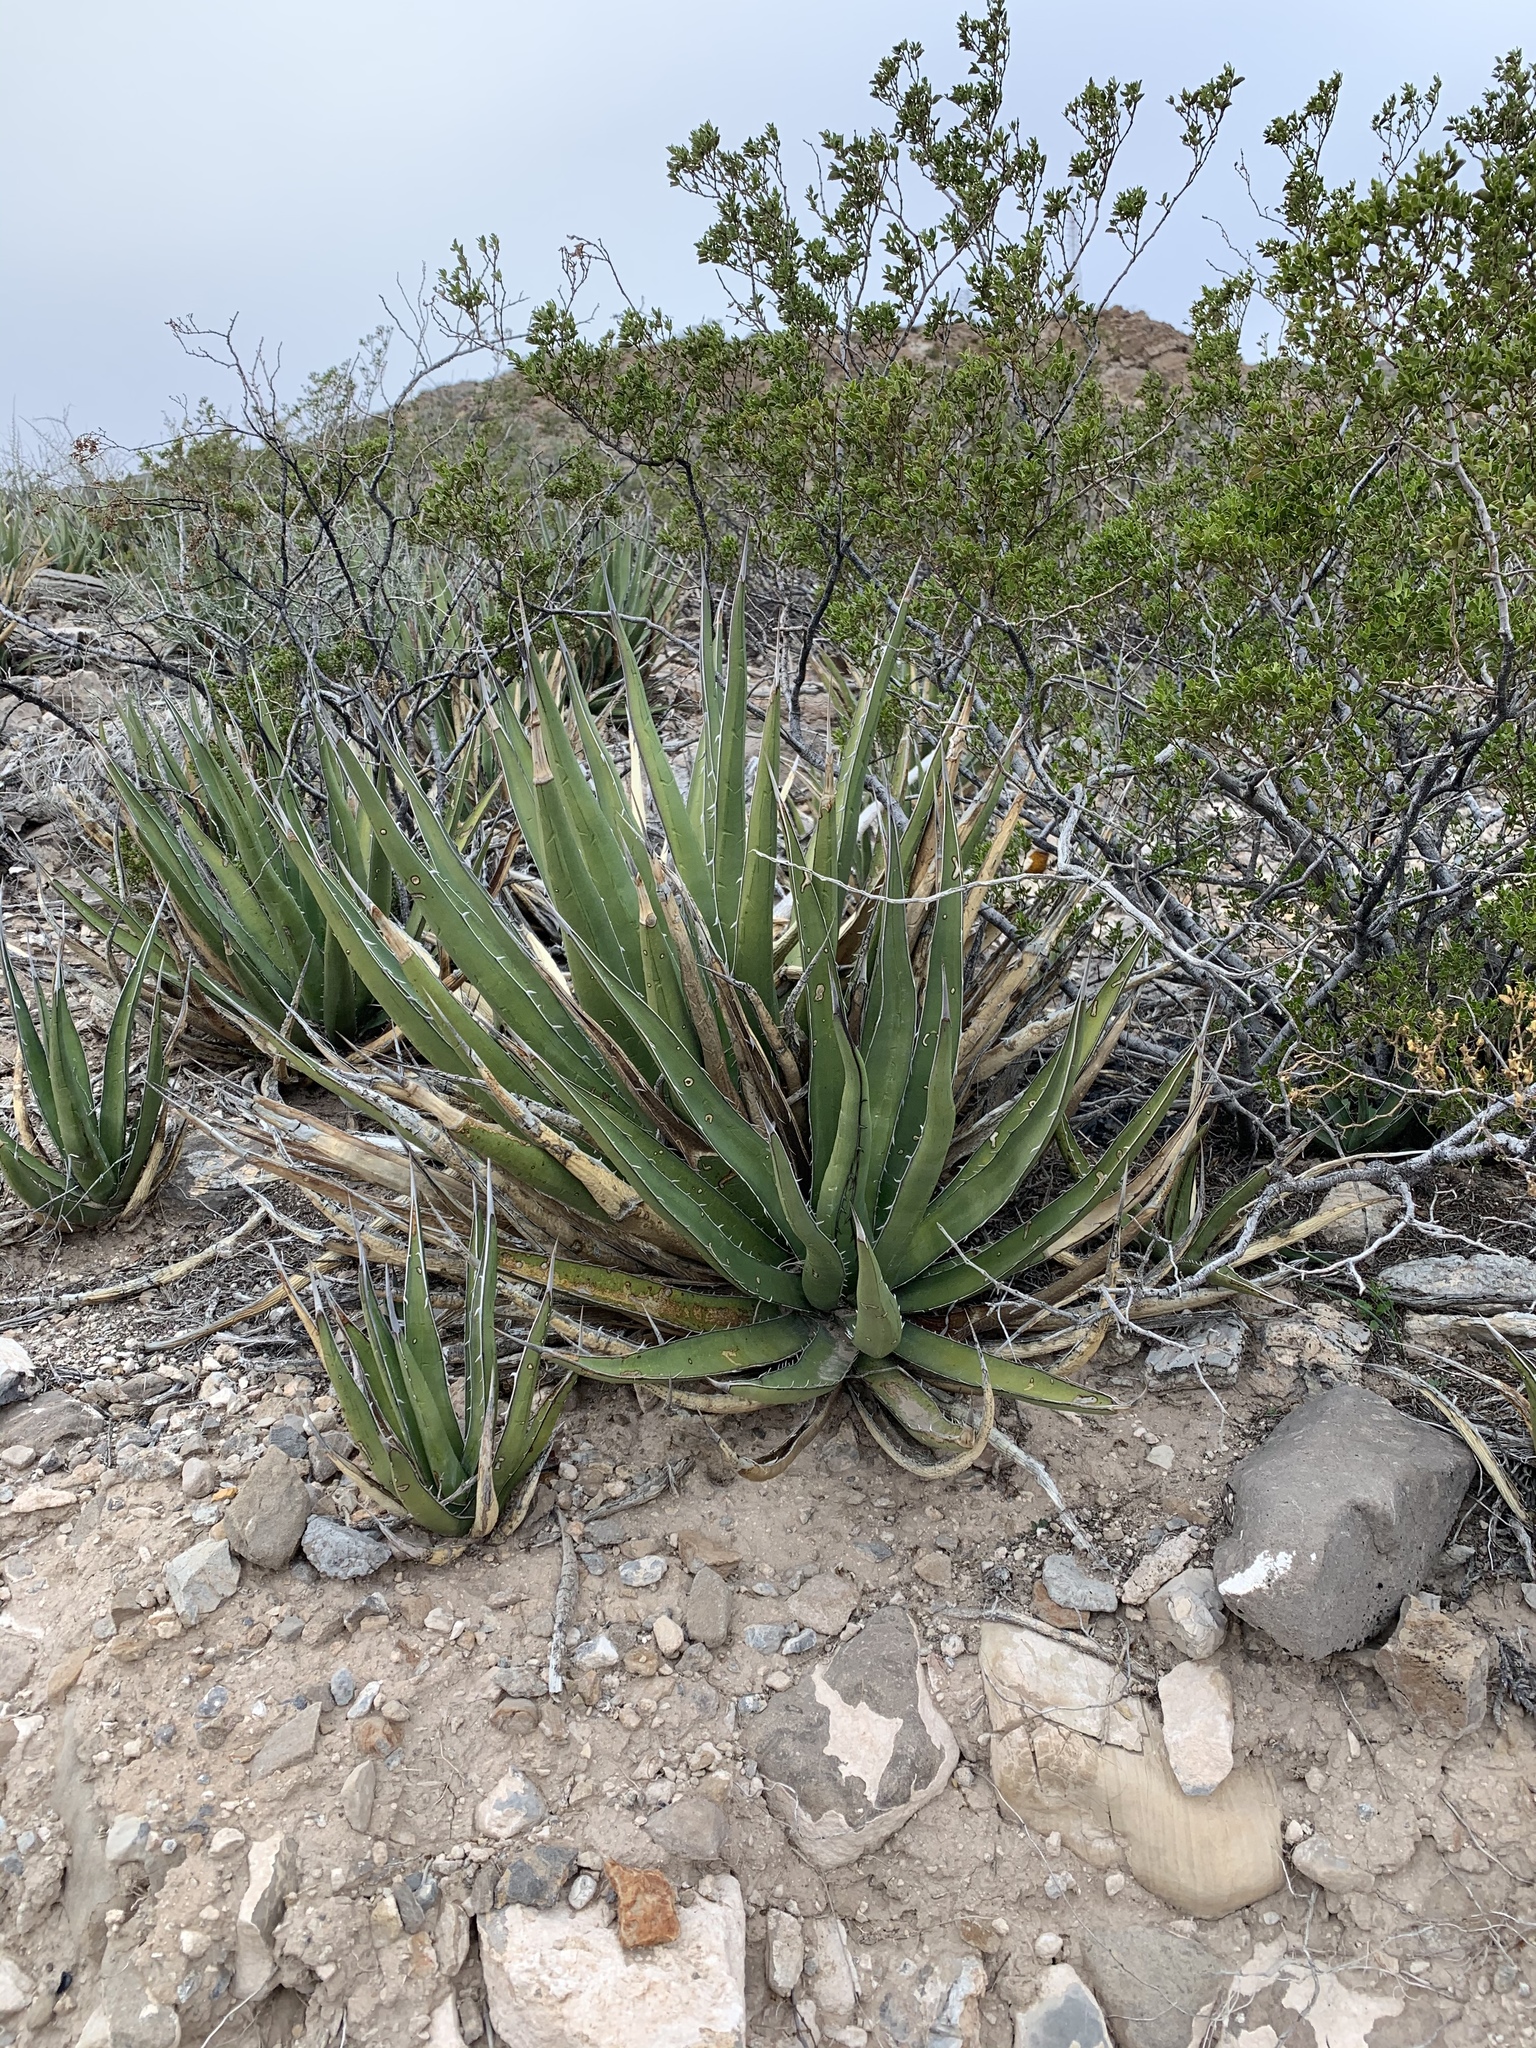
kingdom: Plantae
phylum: Tracheophyta
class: Liliopsida
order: Asparagales
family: Asparagaceae
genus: Agave
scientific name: Agave lechuguilla
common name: Lecheguilla agave
